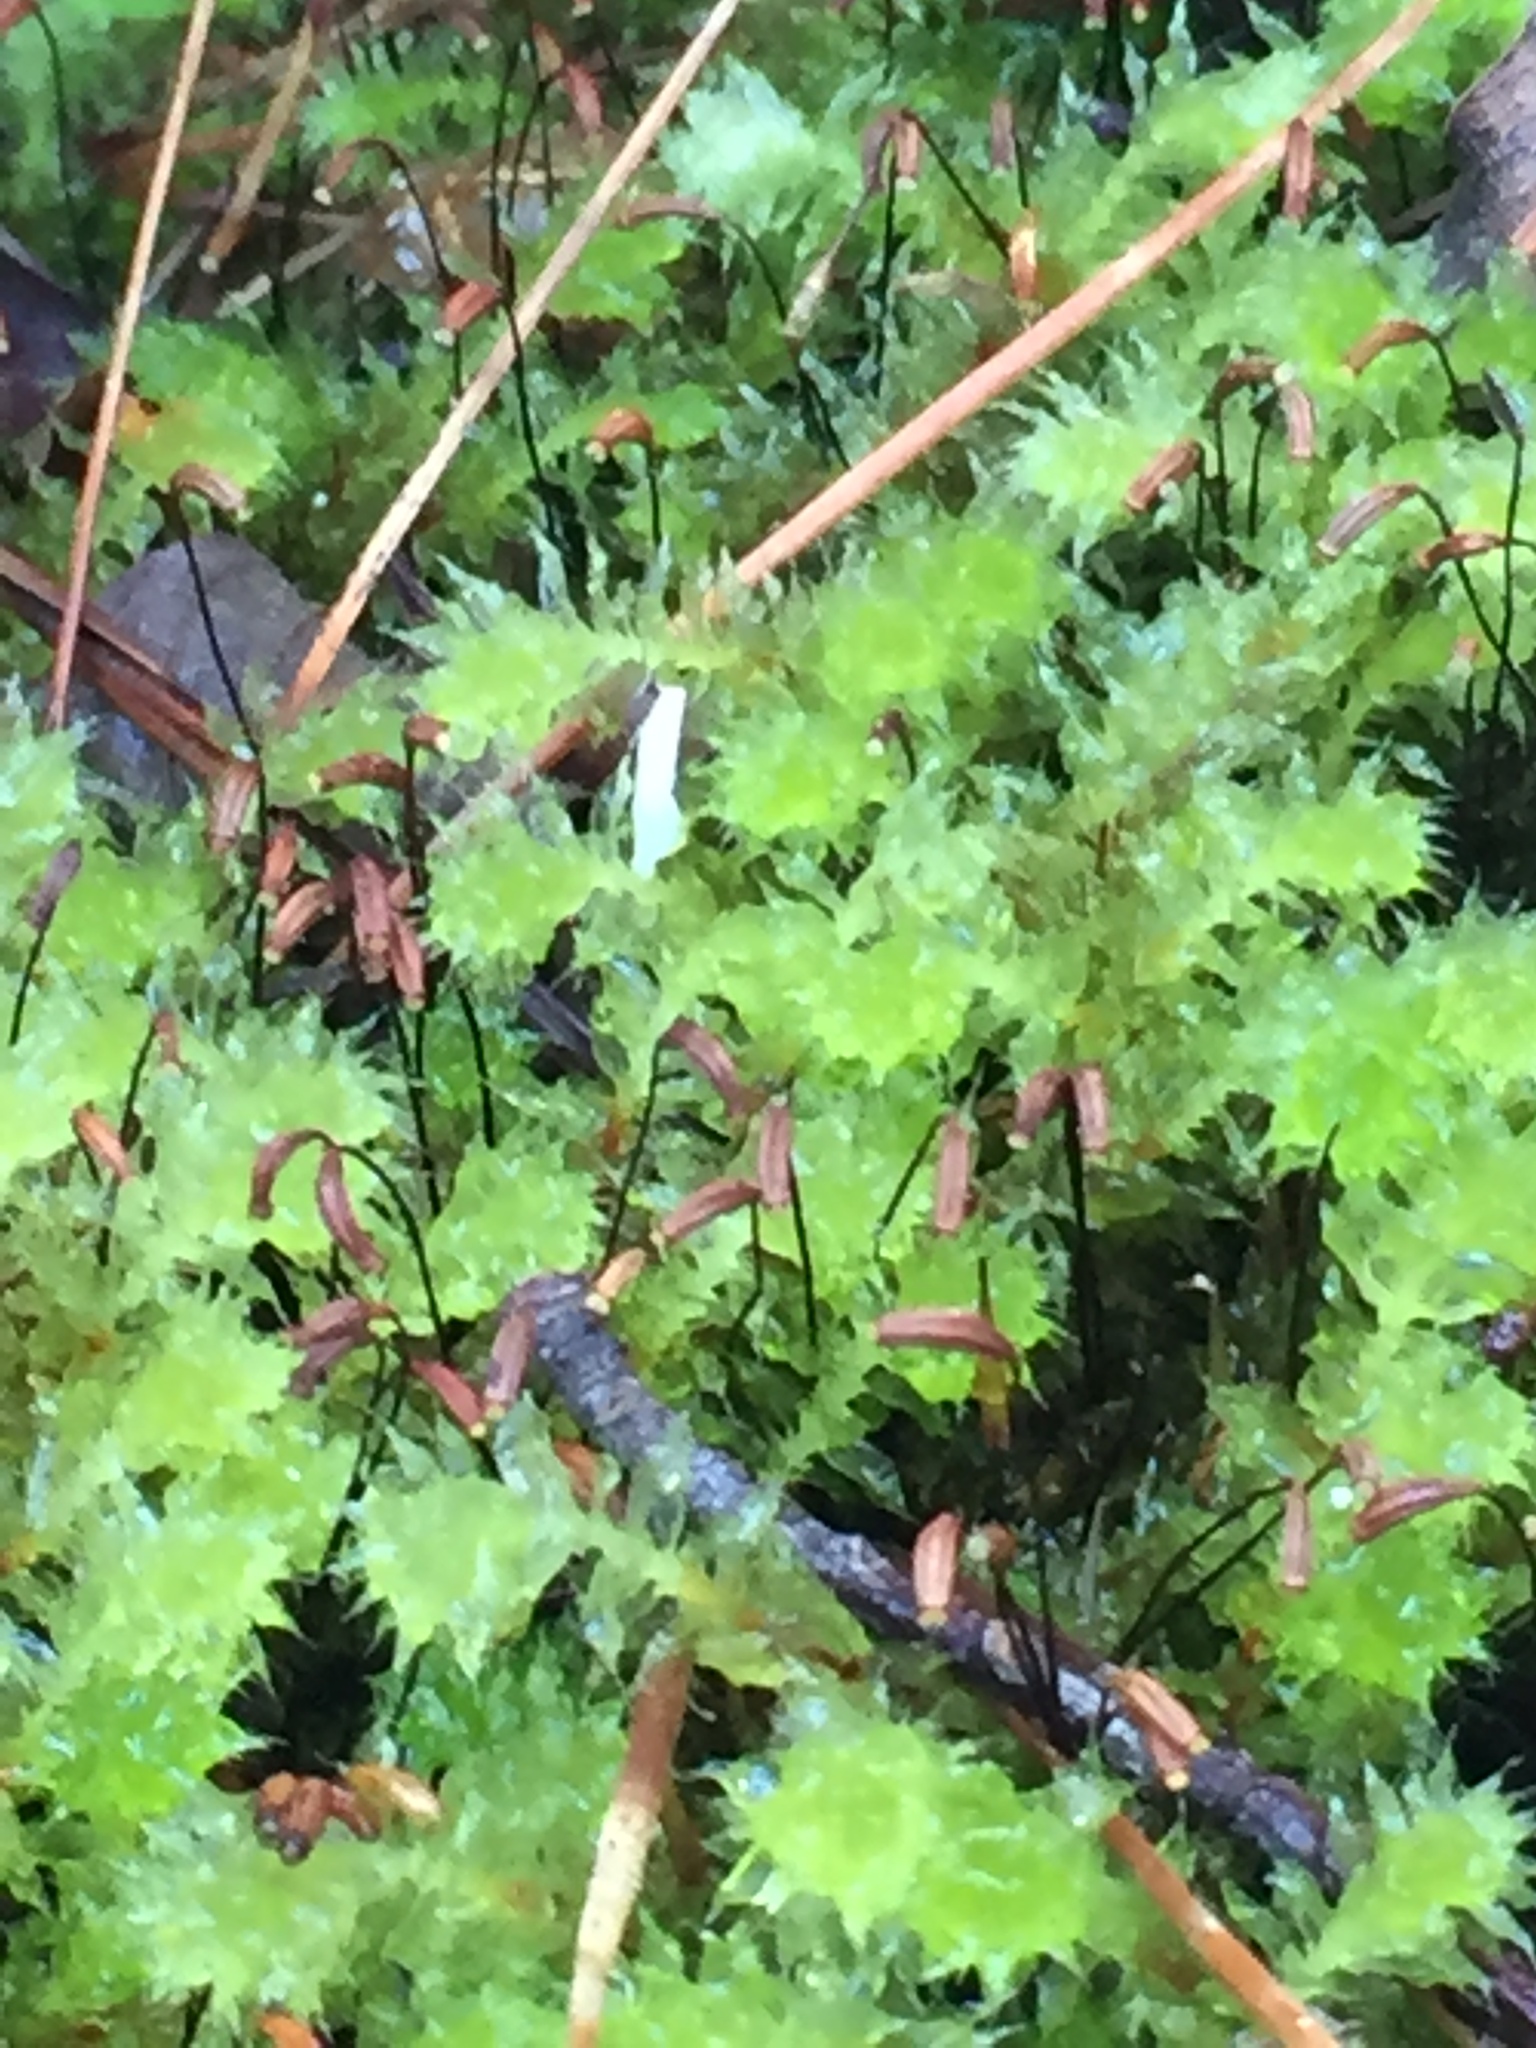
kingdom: Plantae
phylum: Bryophyta
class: Bryopsida
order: Ptychomniales
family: Ptychomniaceae
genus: Ptychomnion
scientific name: Ptychomnion aciculare
